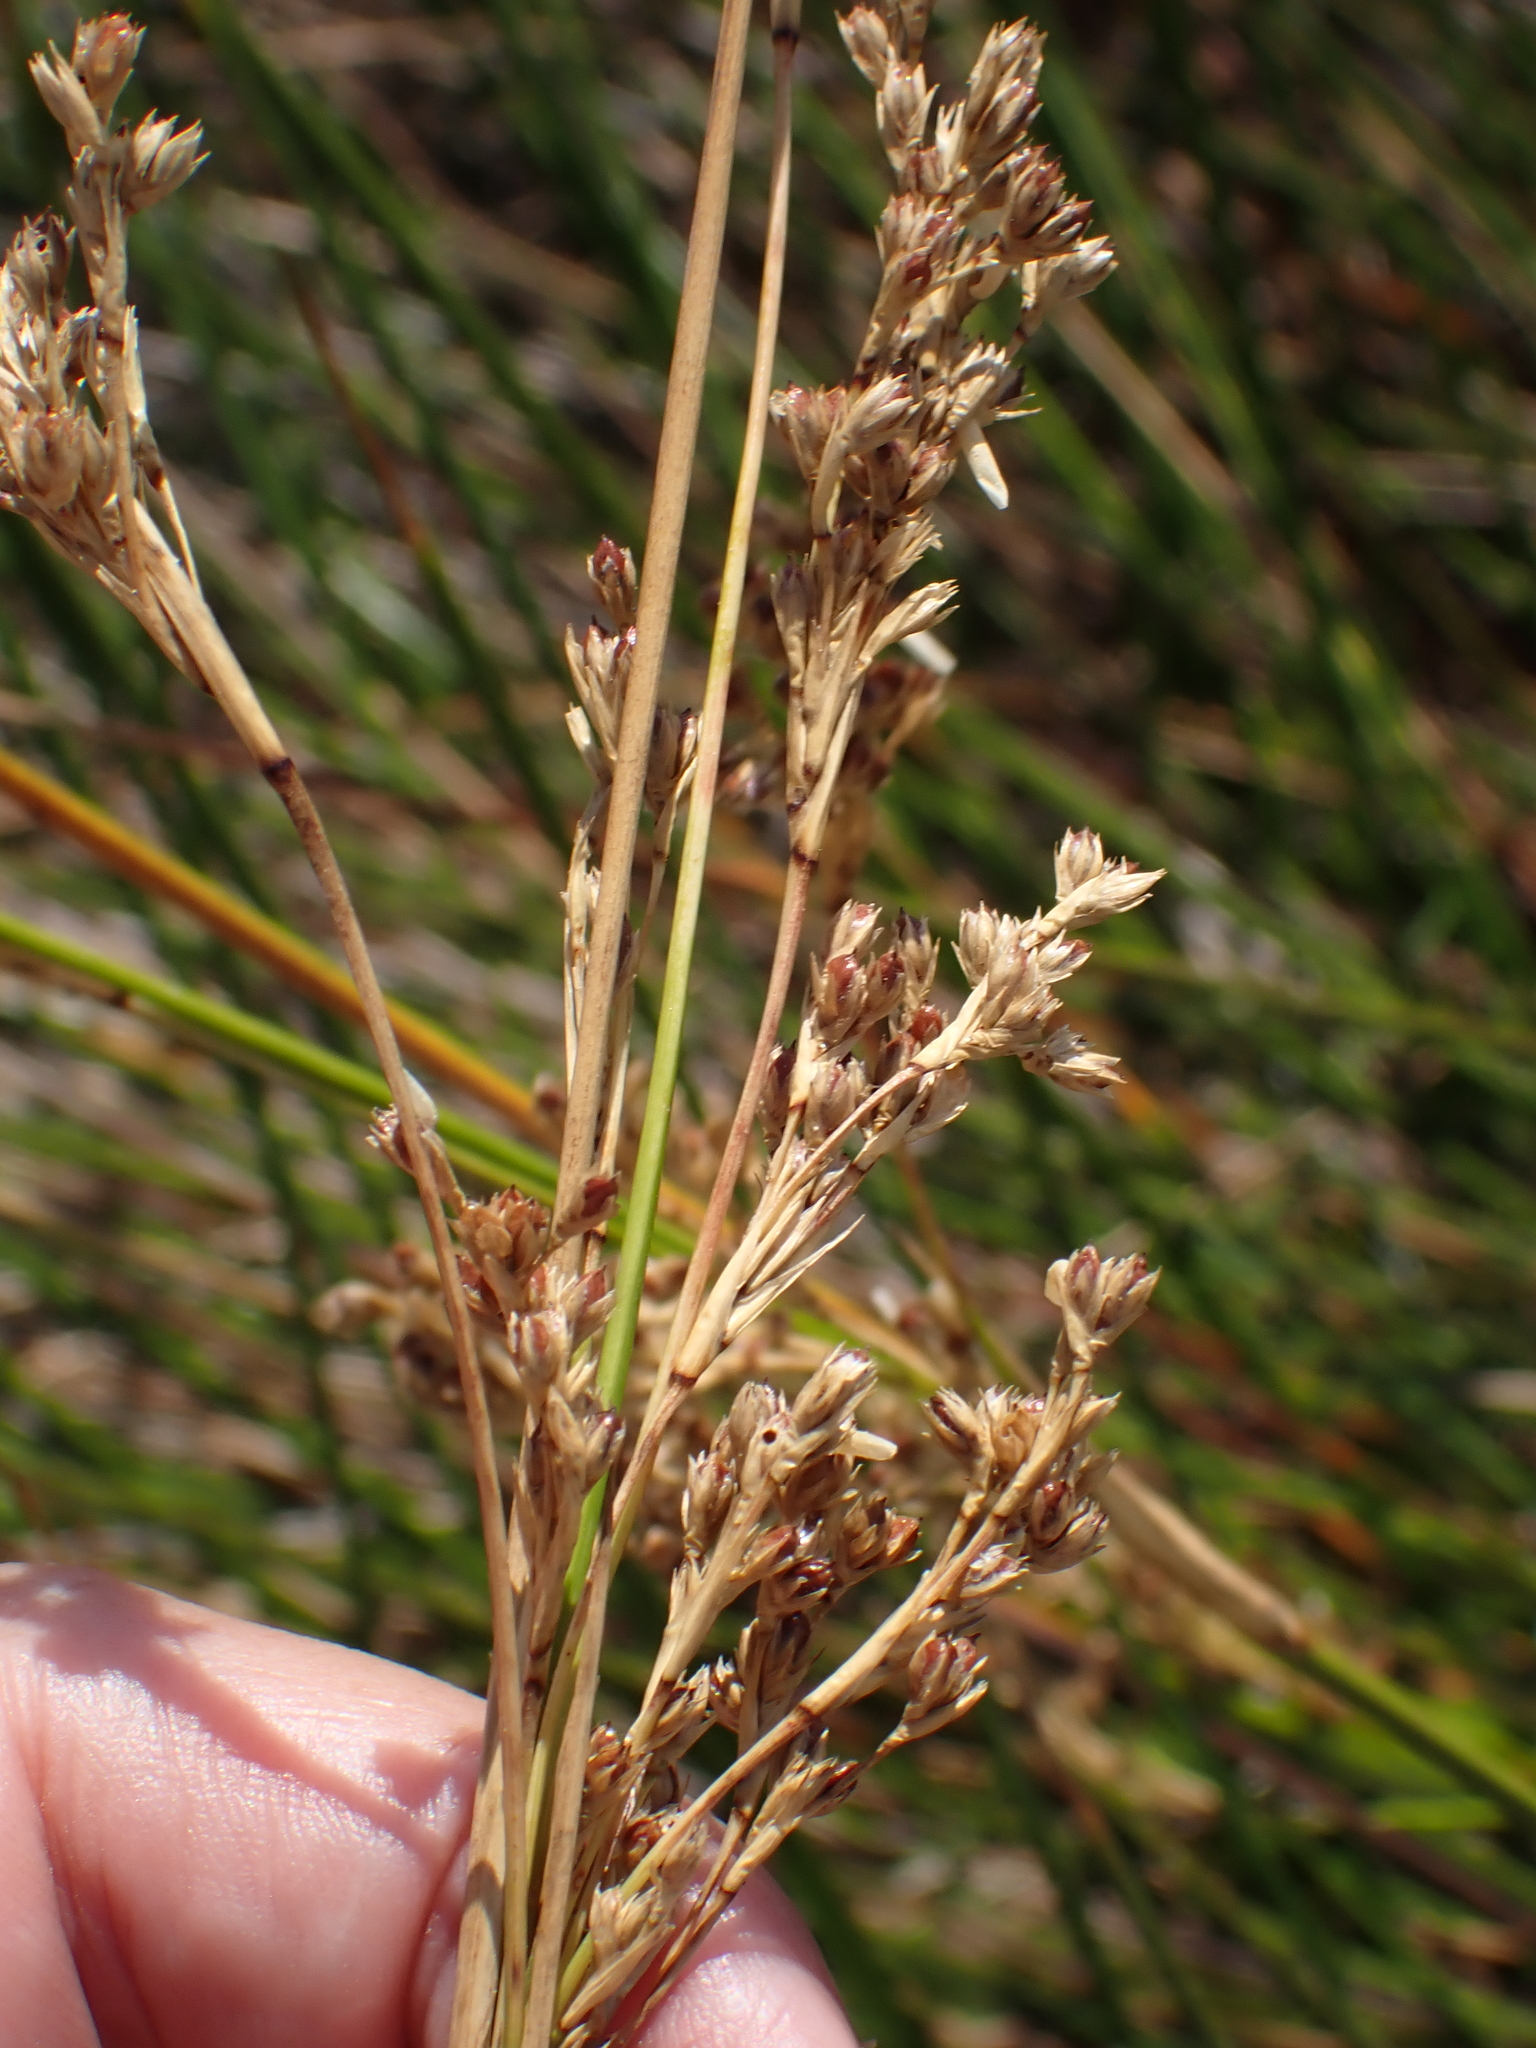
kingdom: Plantae
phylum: Tracheophyta
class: Liliopsida
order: Poales
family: Juncaceae
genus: Juncus
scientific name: Juncus maritimus
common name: Sea rush
